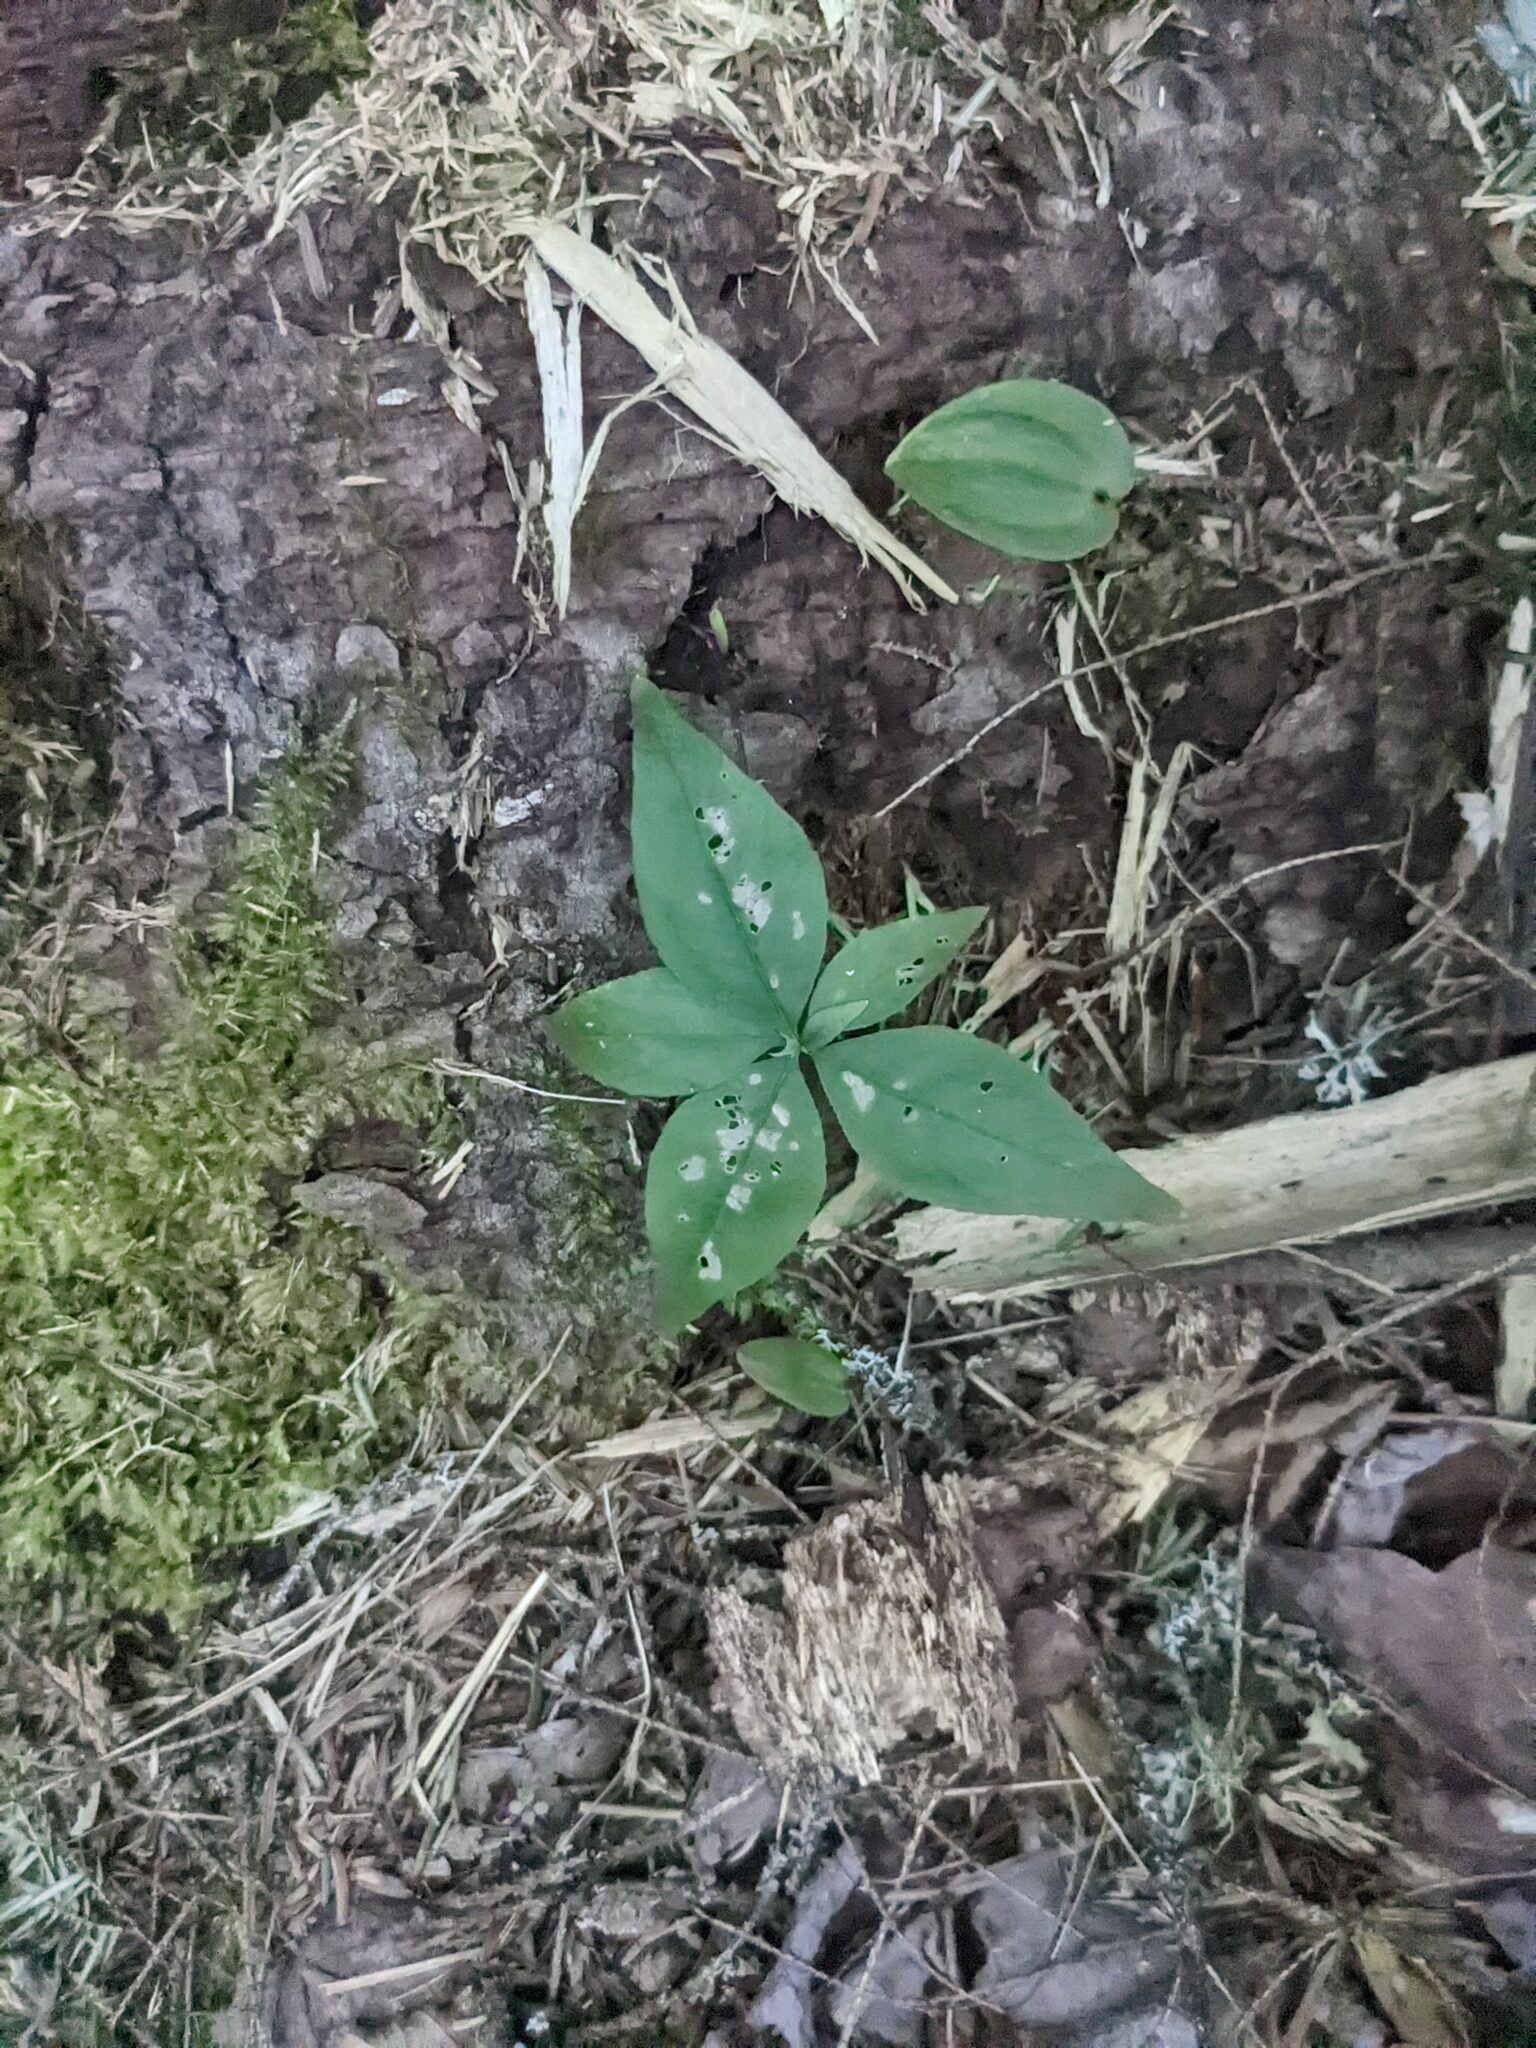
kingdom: Plantae
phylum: Tracheophyta
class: Magnoliopsida
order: Ericales
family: Primulaceae
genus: Lysimachia
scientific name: Lysimachia borealis
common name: American starflower
